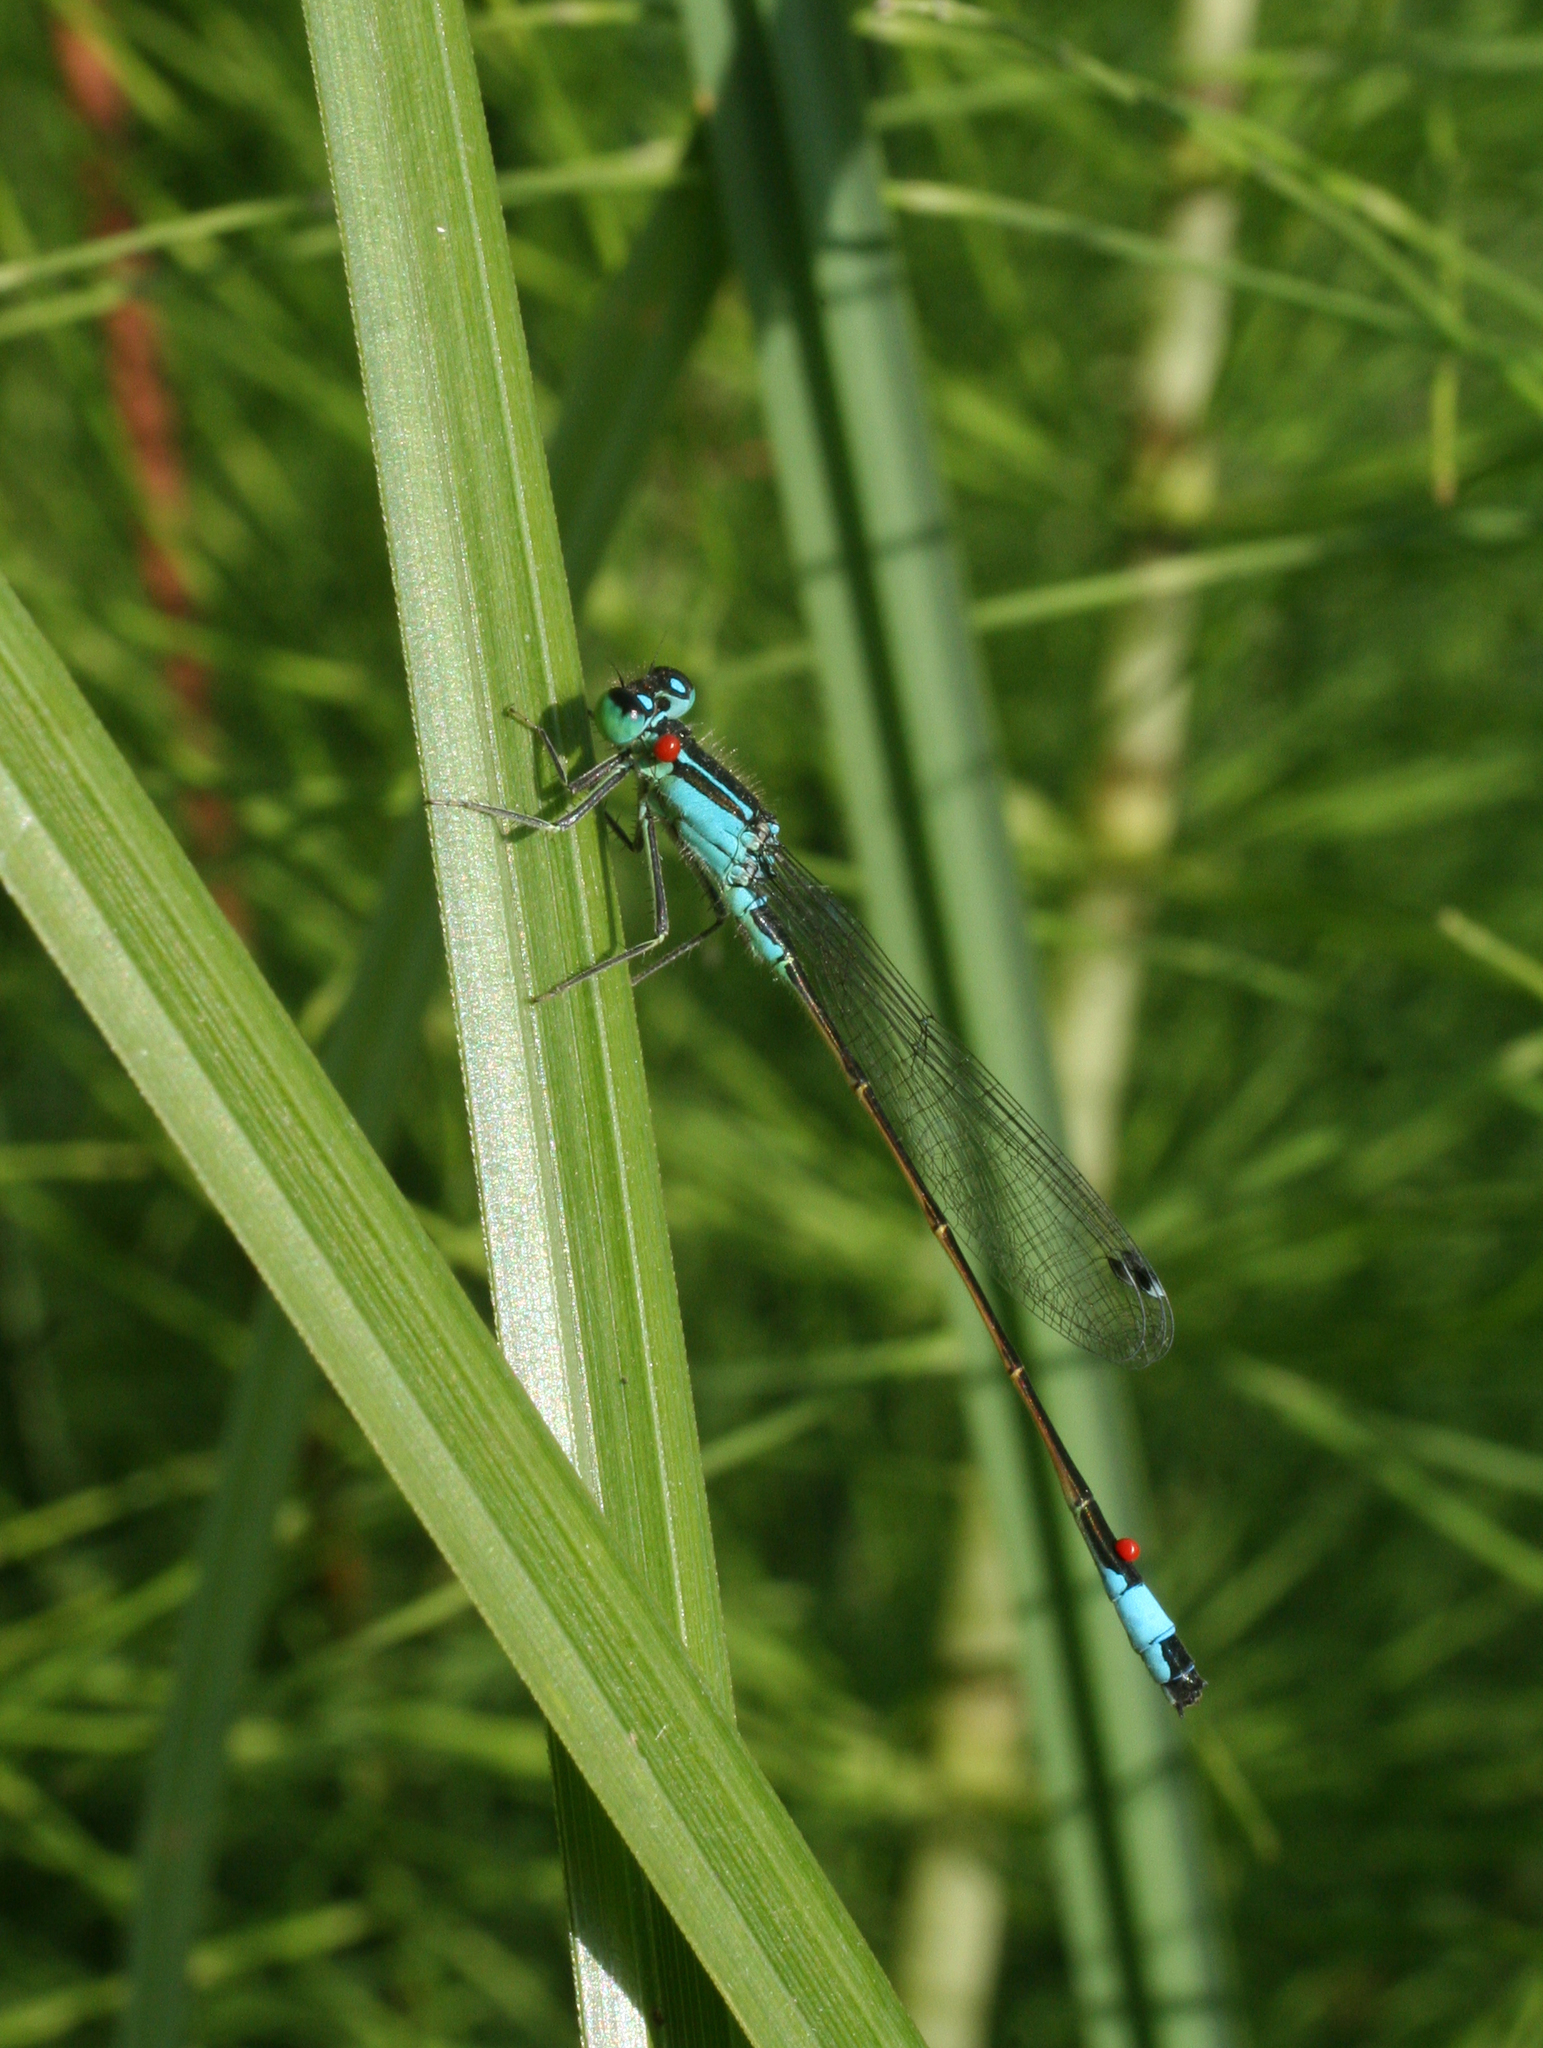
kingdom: Animalia
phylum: Arthropoda
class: Insecta
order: Odonata
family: Coenagrionidae
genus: Ischnura
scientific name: Ischnura elegans
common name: Blue-tailed damselfly
